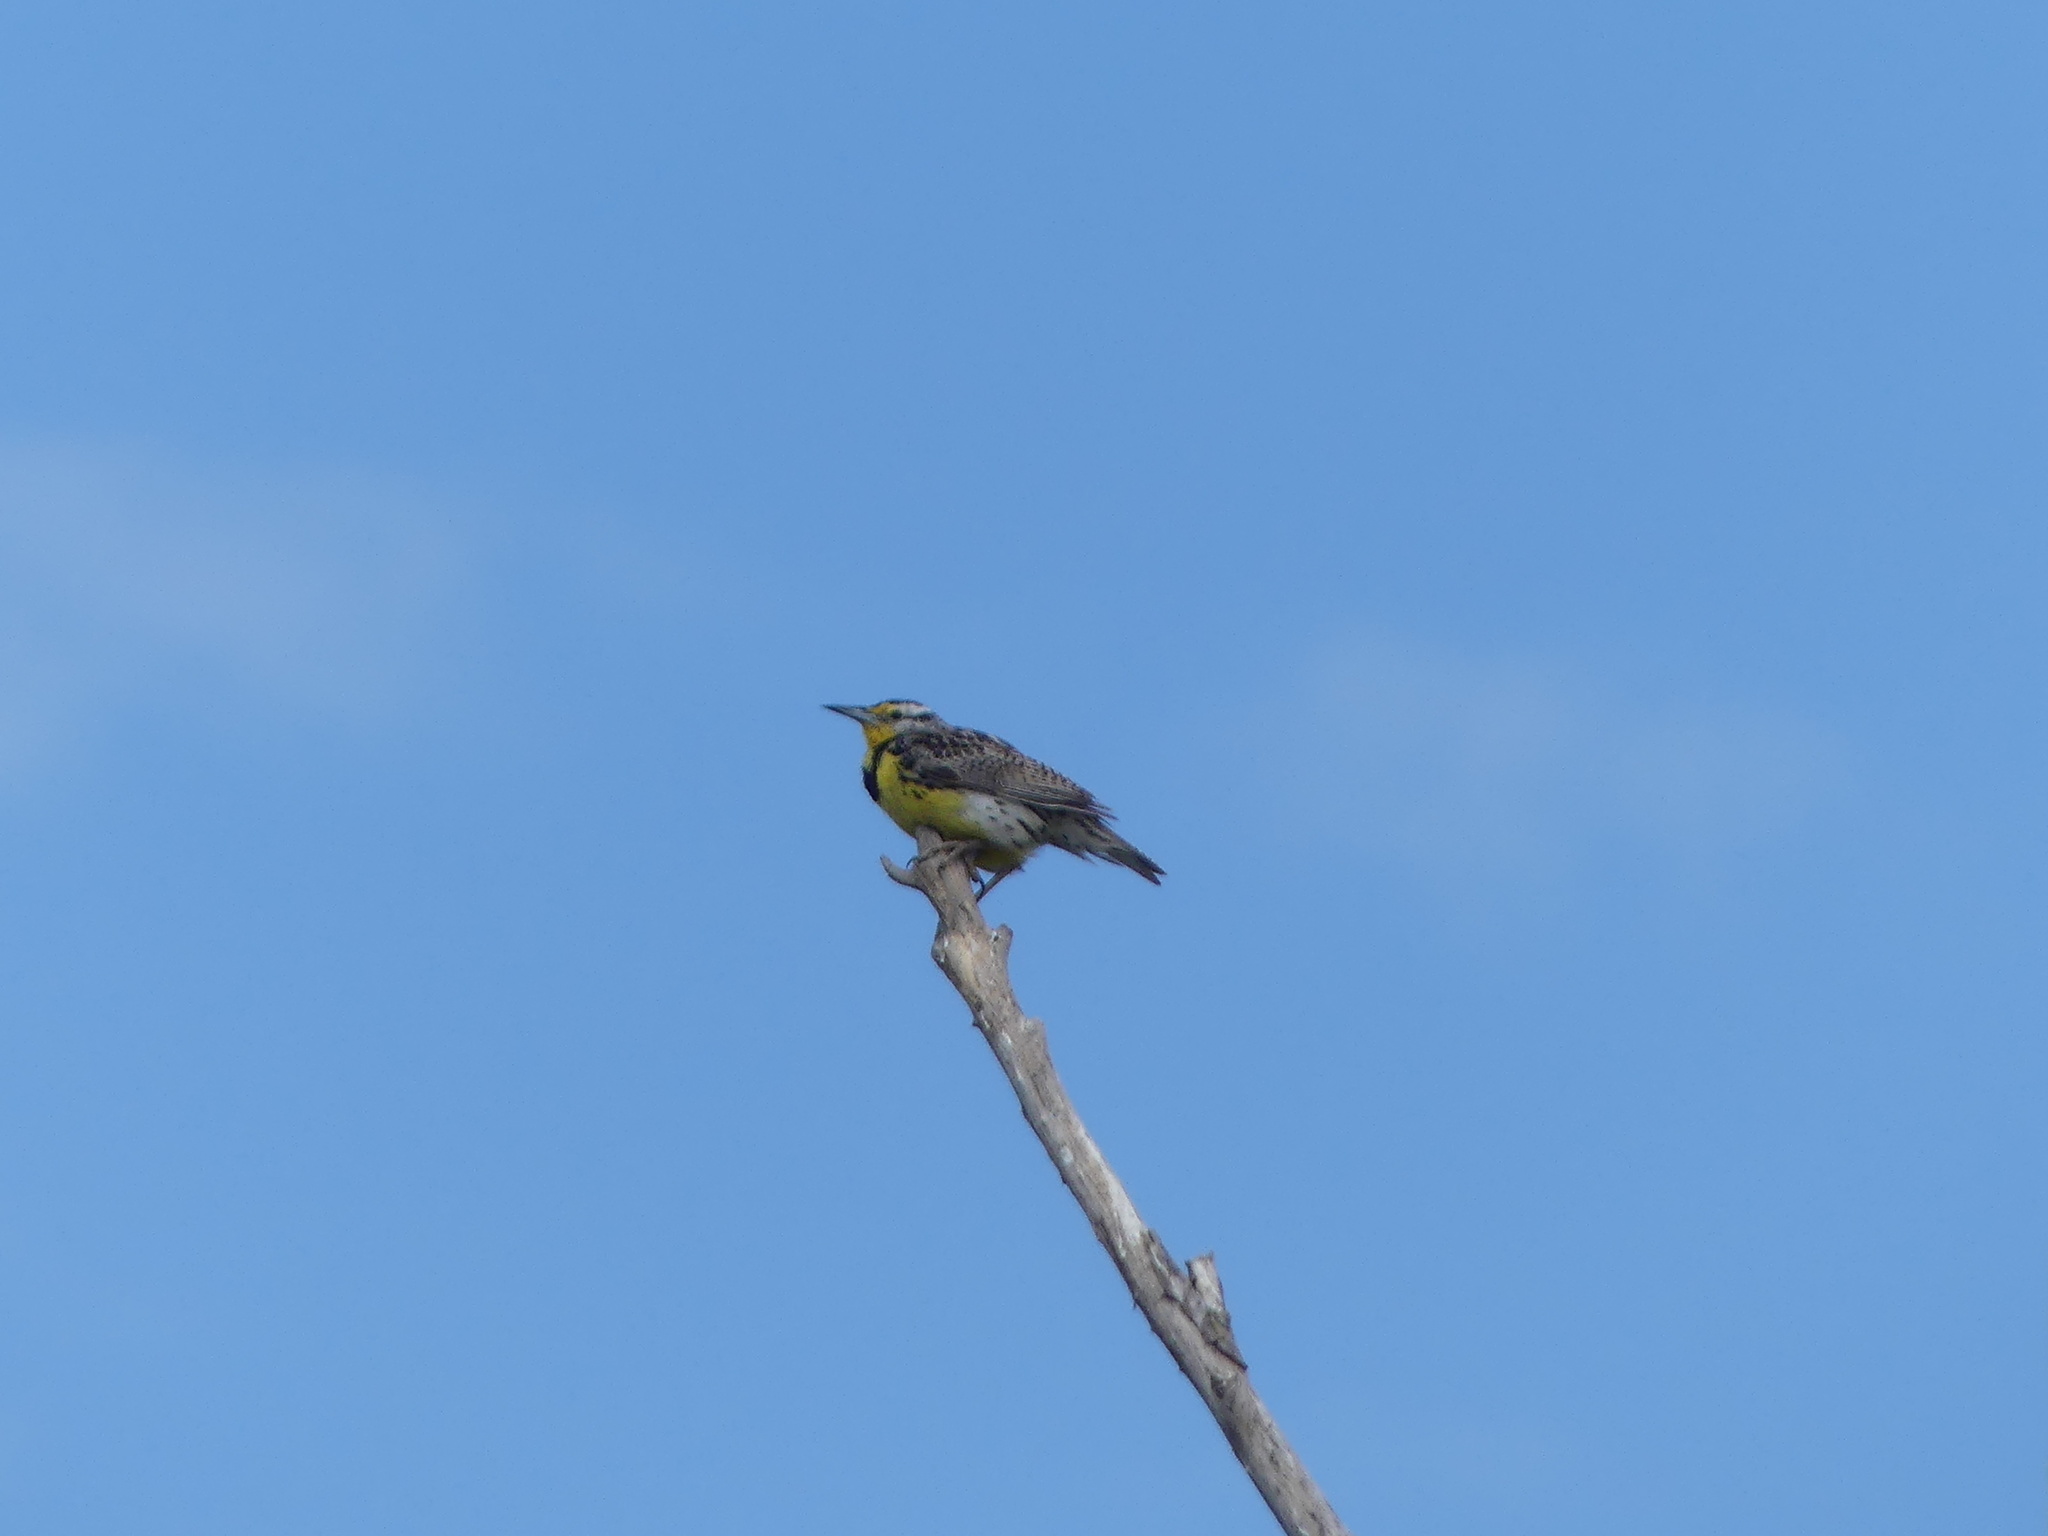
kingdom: Animalia
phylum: Chordata
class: Aves
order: Passeriformes
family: Icteridae
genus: Sturnella
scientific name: Sturnella neglecta
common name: Western meadowlark
